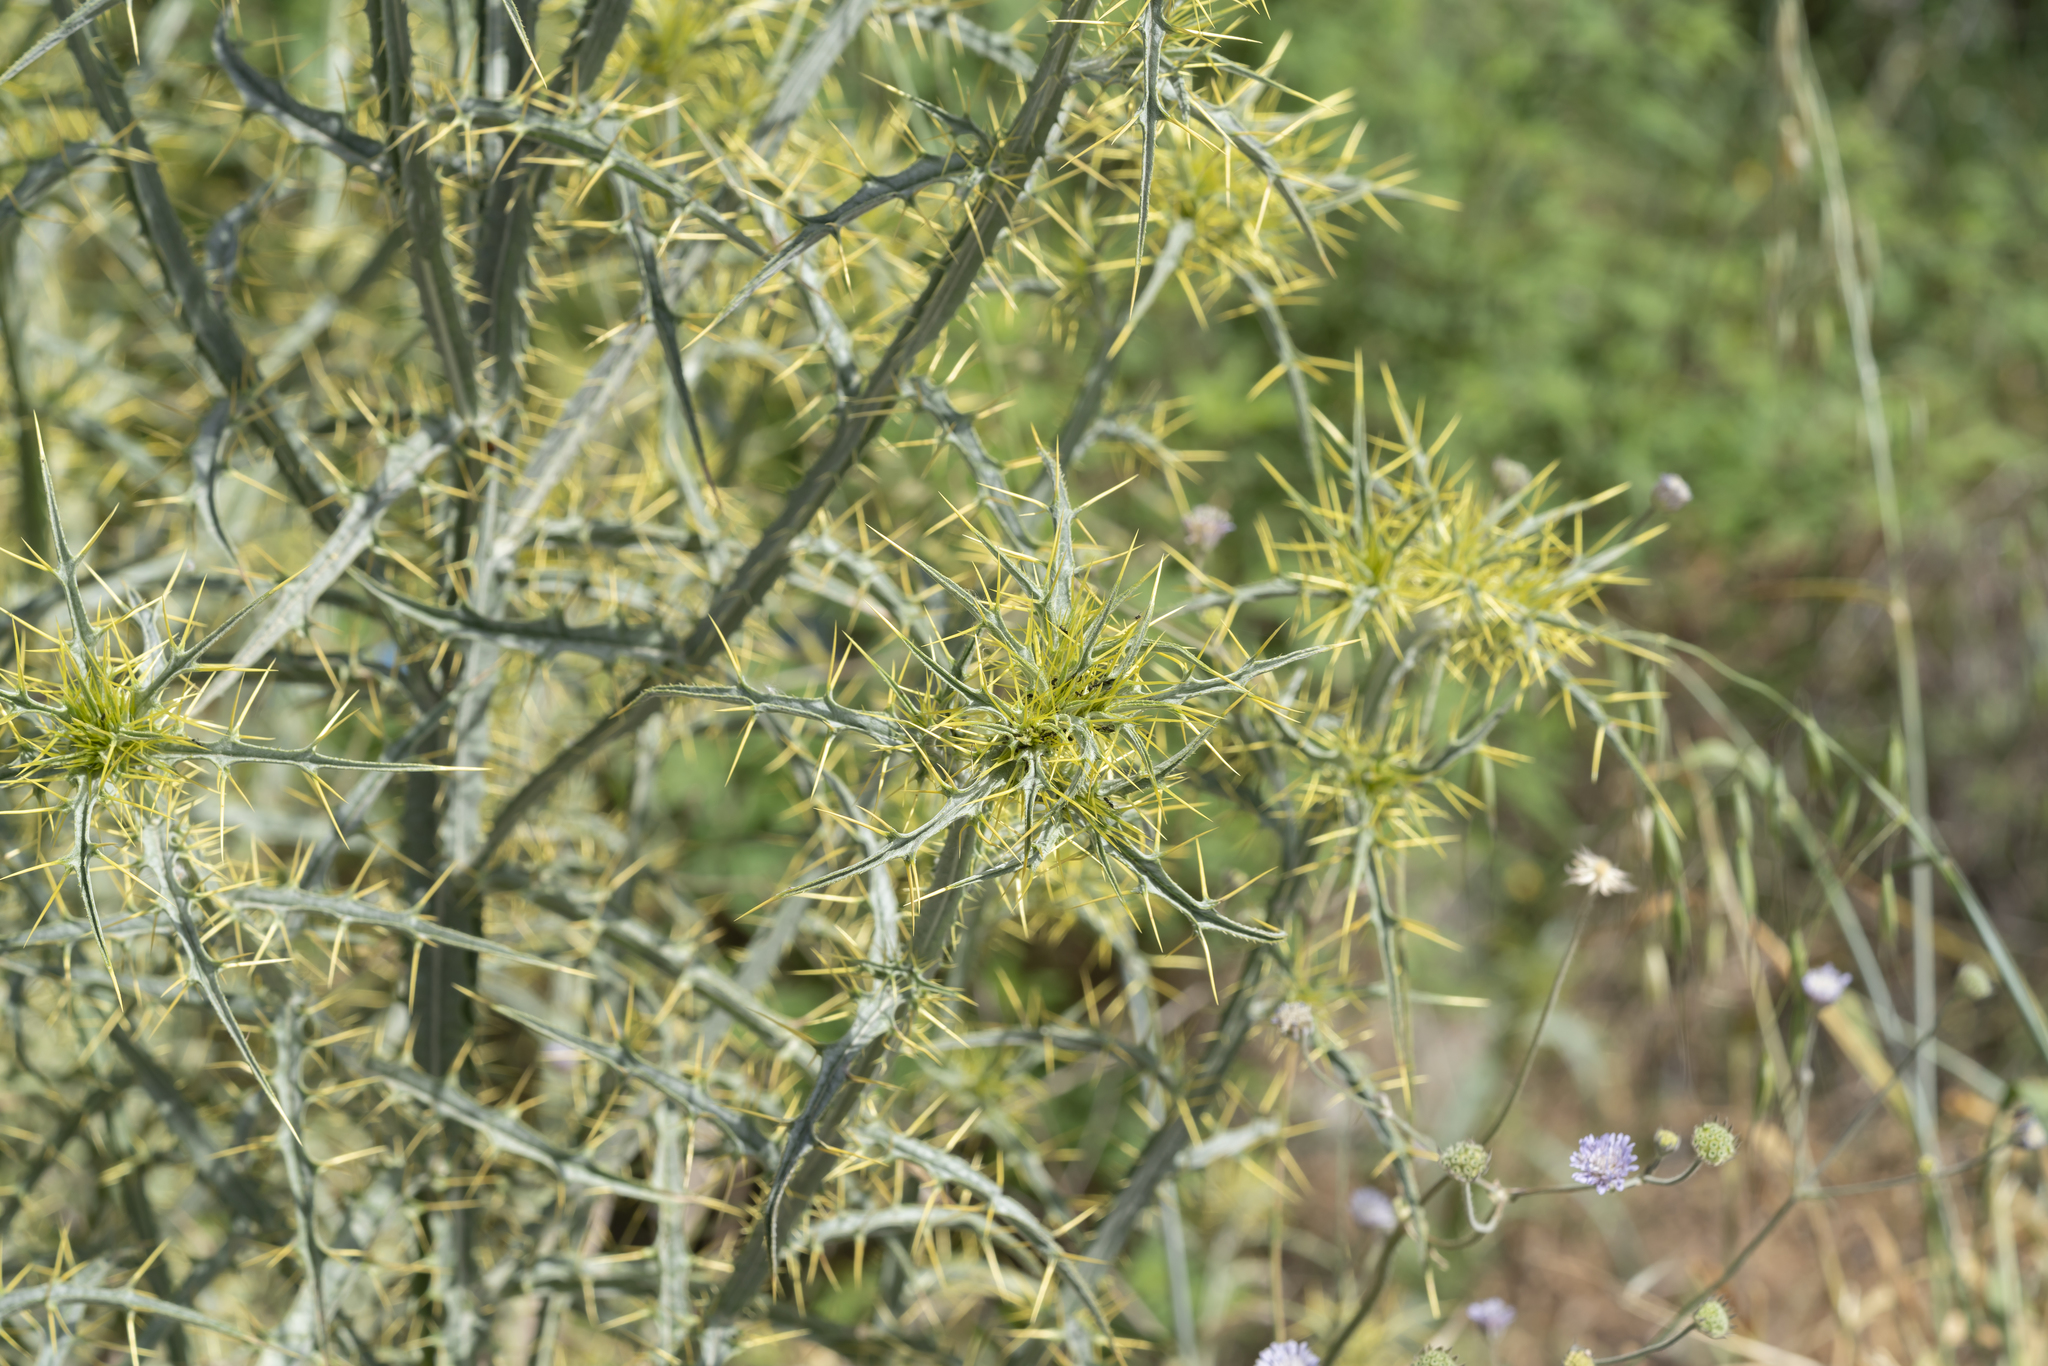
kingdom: Plantae
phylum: Tracheophyta
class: Magnoliopsida
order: Asterales
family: Asteraceae
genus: Picnomon
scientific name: Picnomon acarna
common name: Soldier thistle
